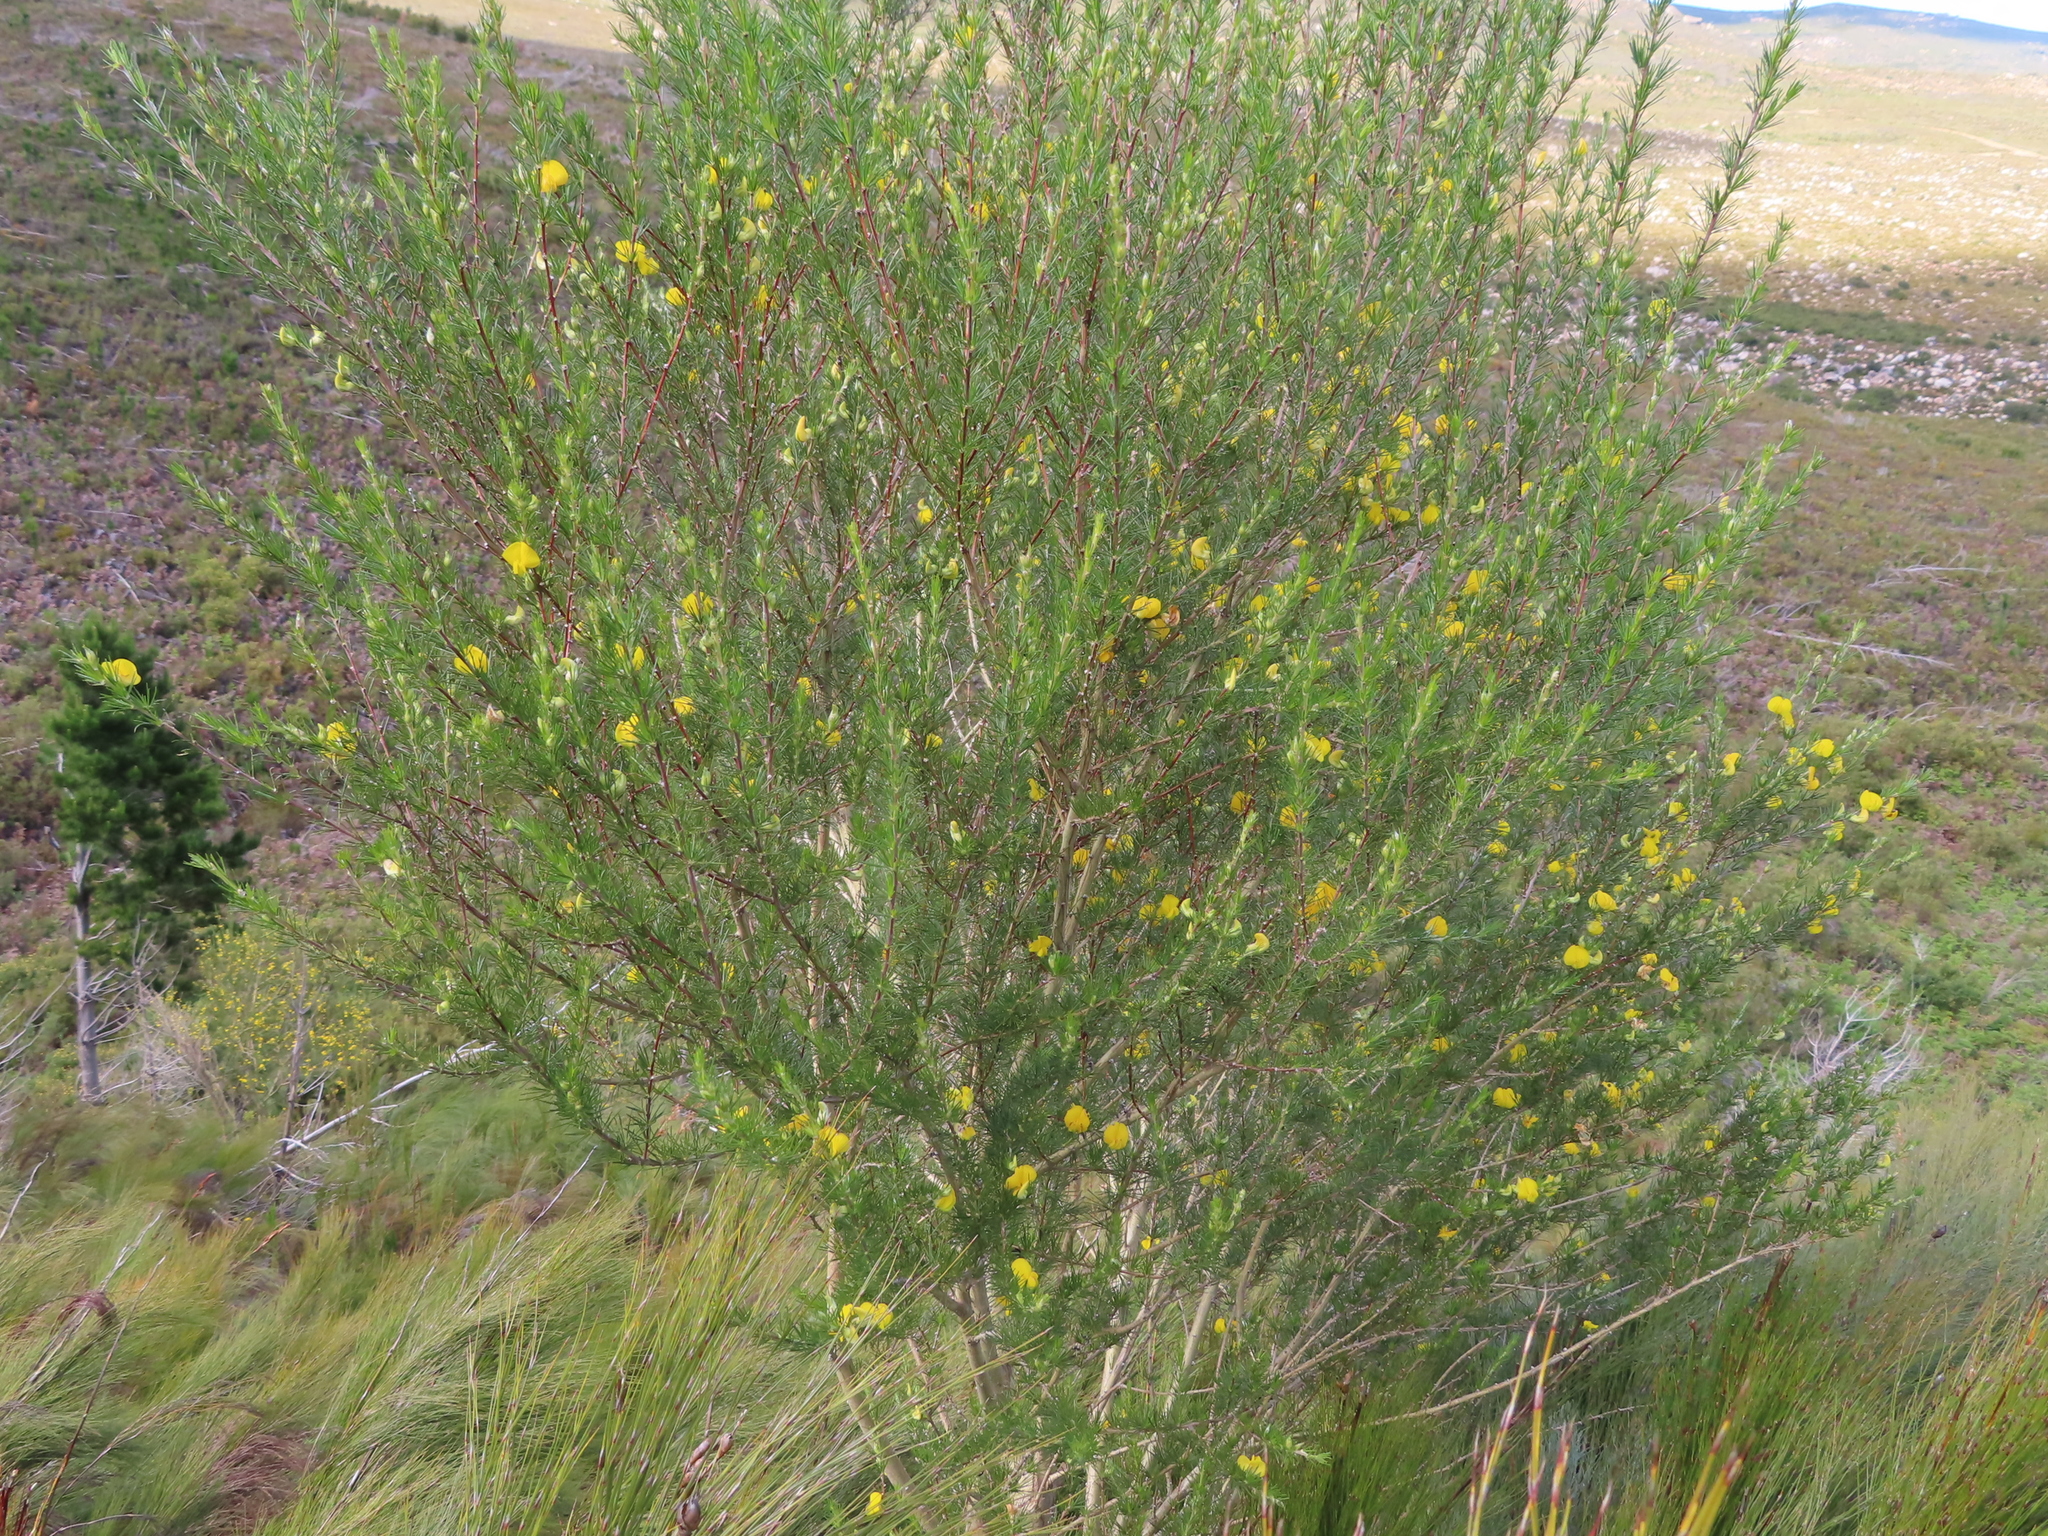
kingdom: Plantae
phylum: Tracheophyta
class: Magnoliopsida
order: Fabales
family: Fabaceae
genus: Aspalathus
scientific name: Aspalathus willdenowiana
